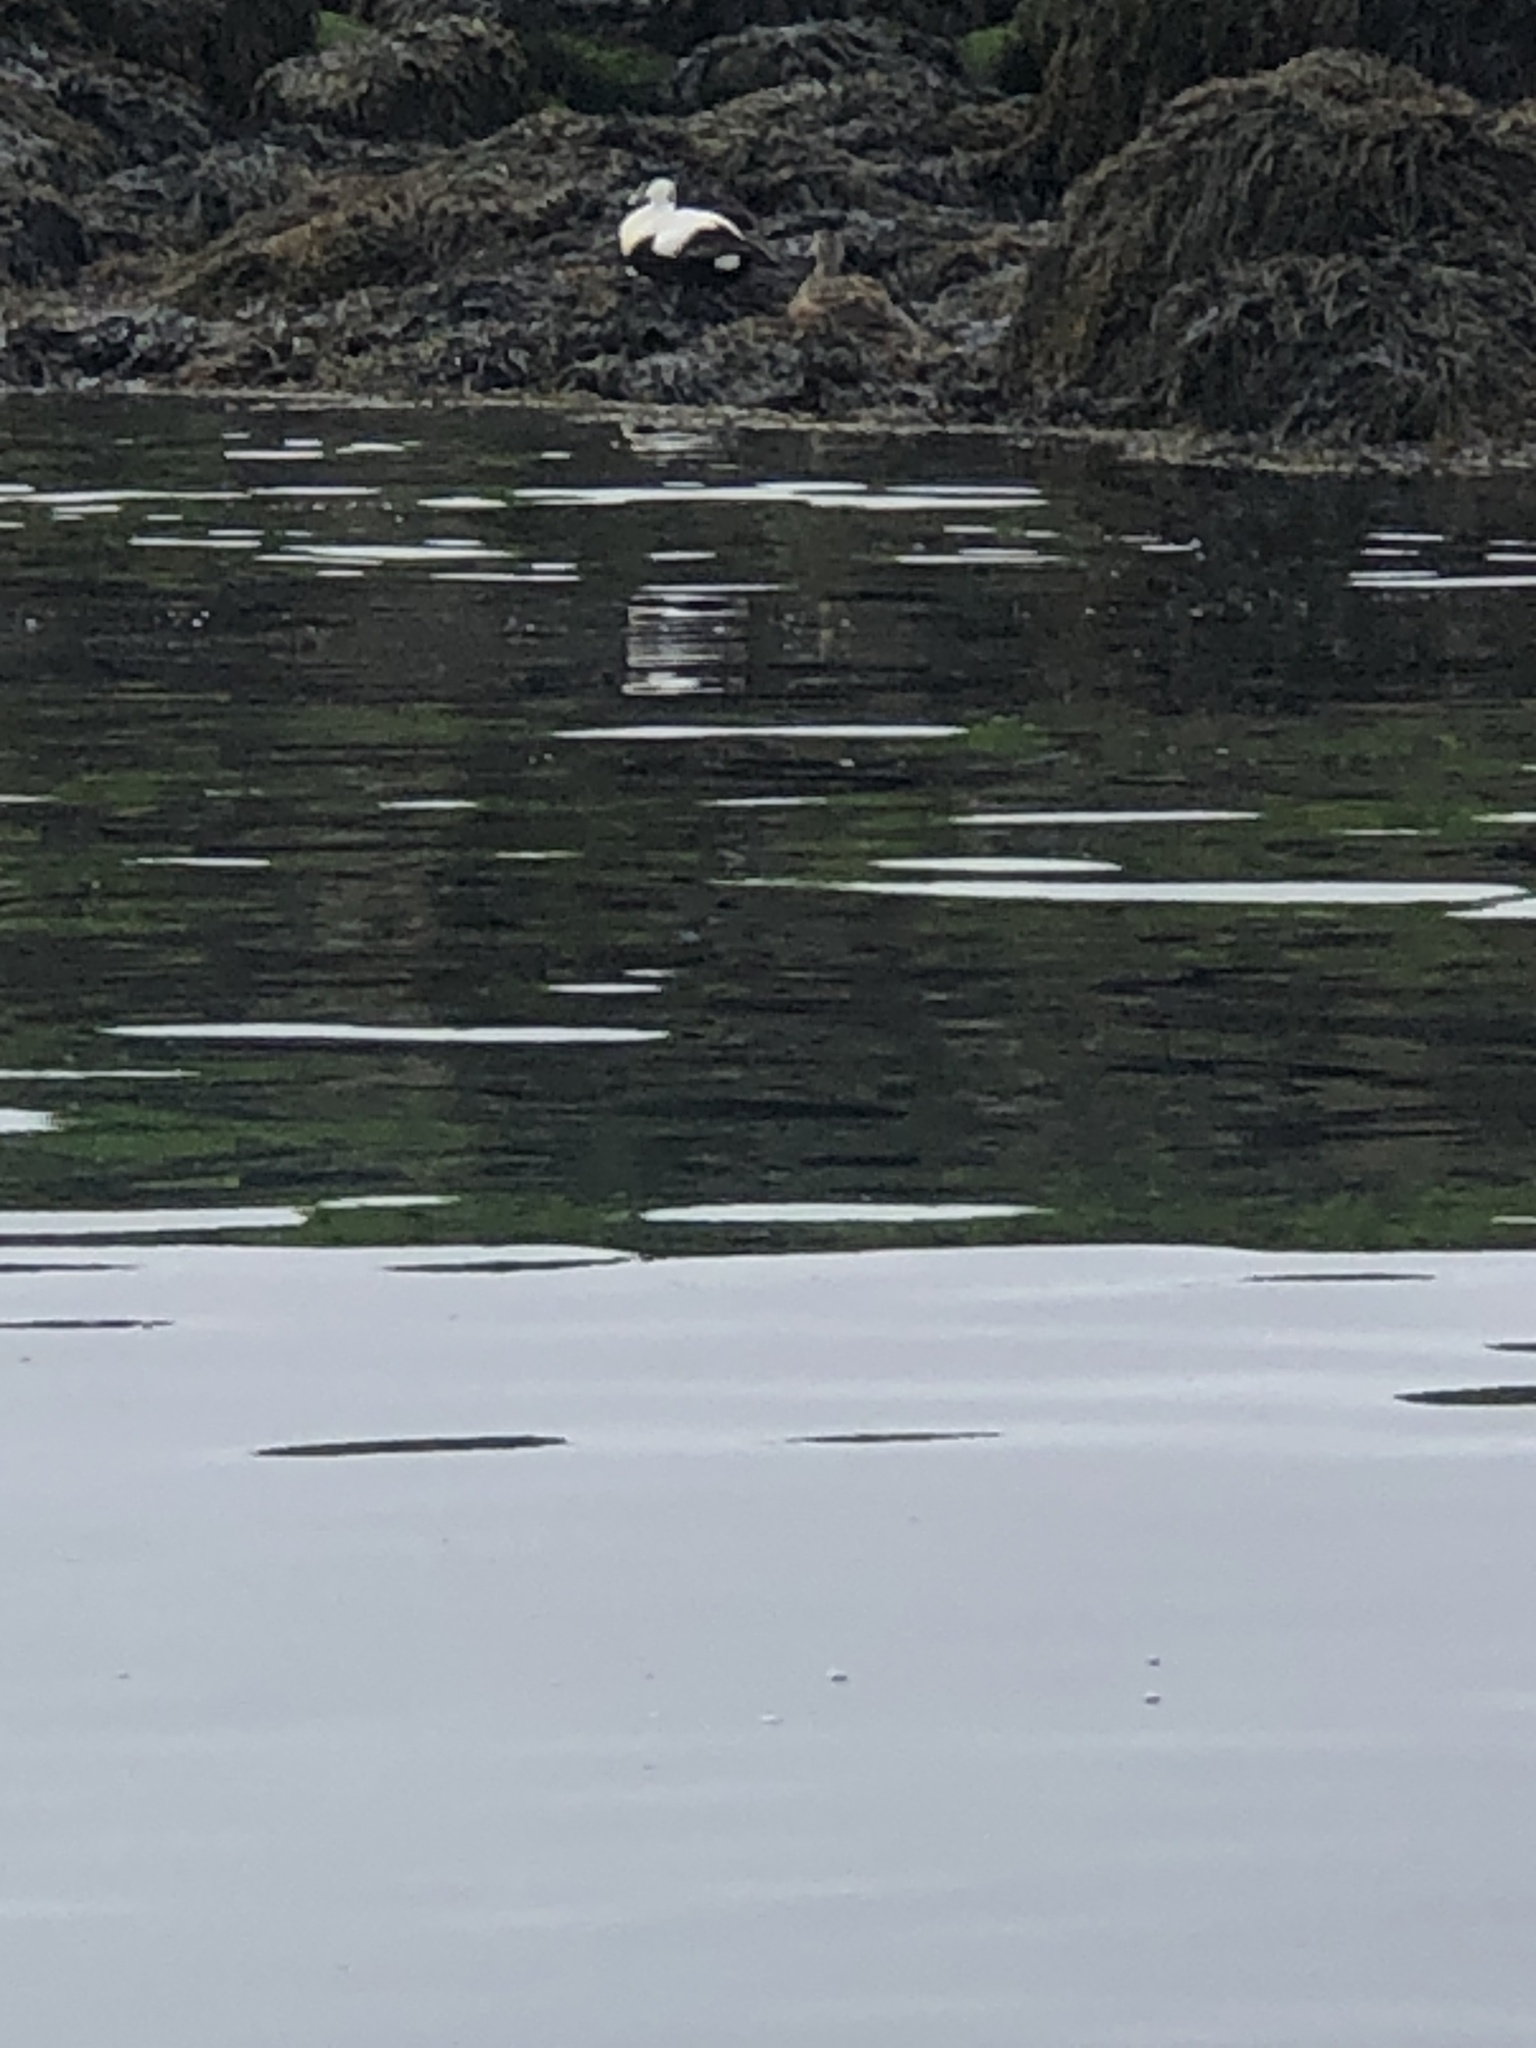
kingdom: Animalia
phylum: Chordata
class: Aves
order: Anseriformes
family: Anatidae
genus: Somateria
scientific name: Somateria mollissima
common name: Common eider
